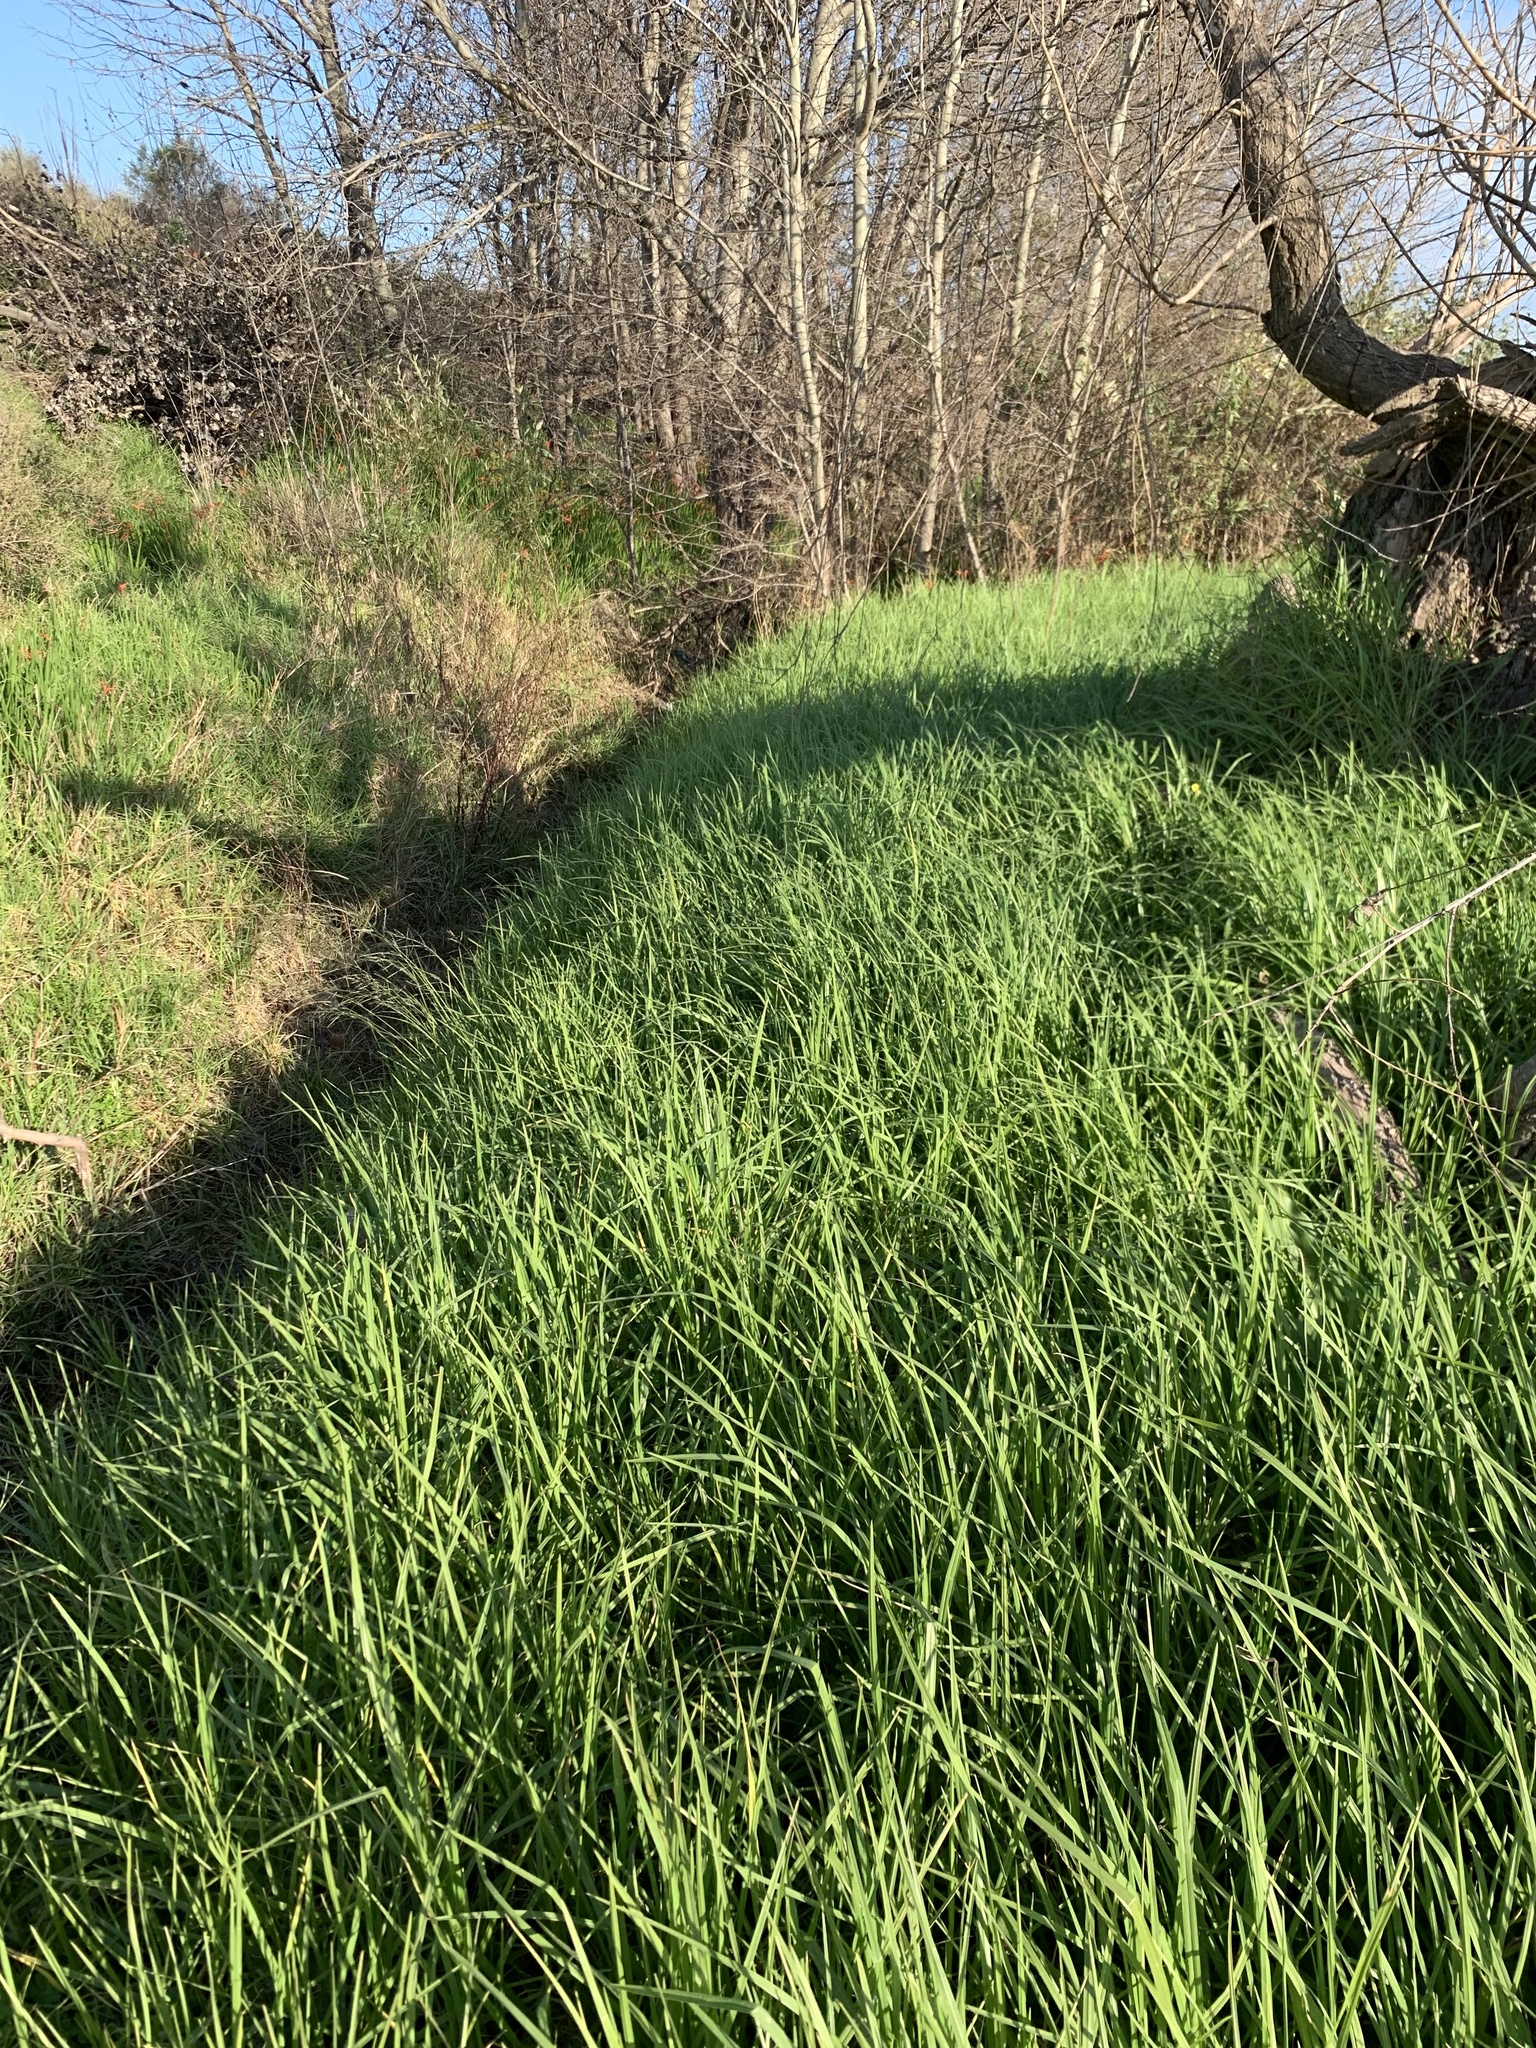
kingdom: Plantae
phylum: Tracheophyta
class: Liliopsida
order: Poales
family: Poaceae
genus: Cenchrus
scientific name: Cenchrus clandestinus
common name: Kikuyugrass
